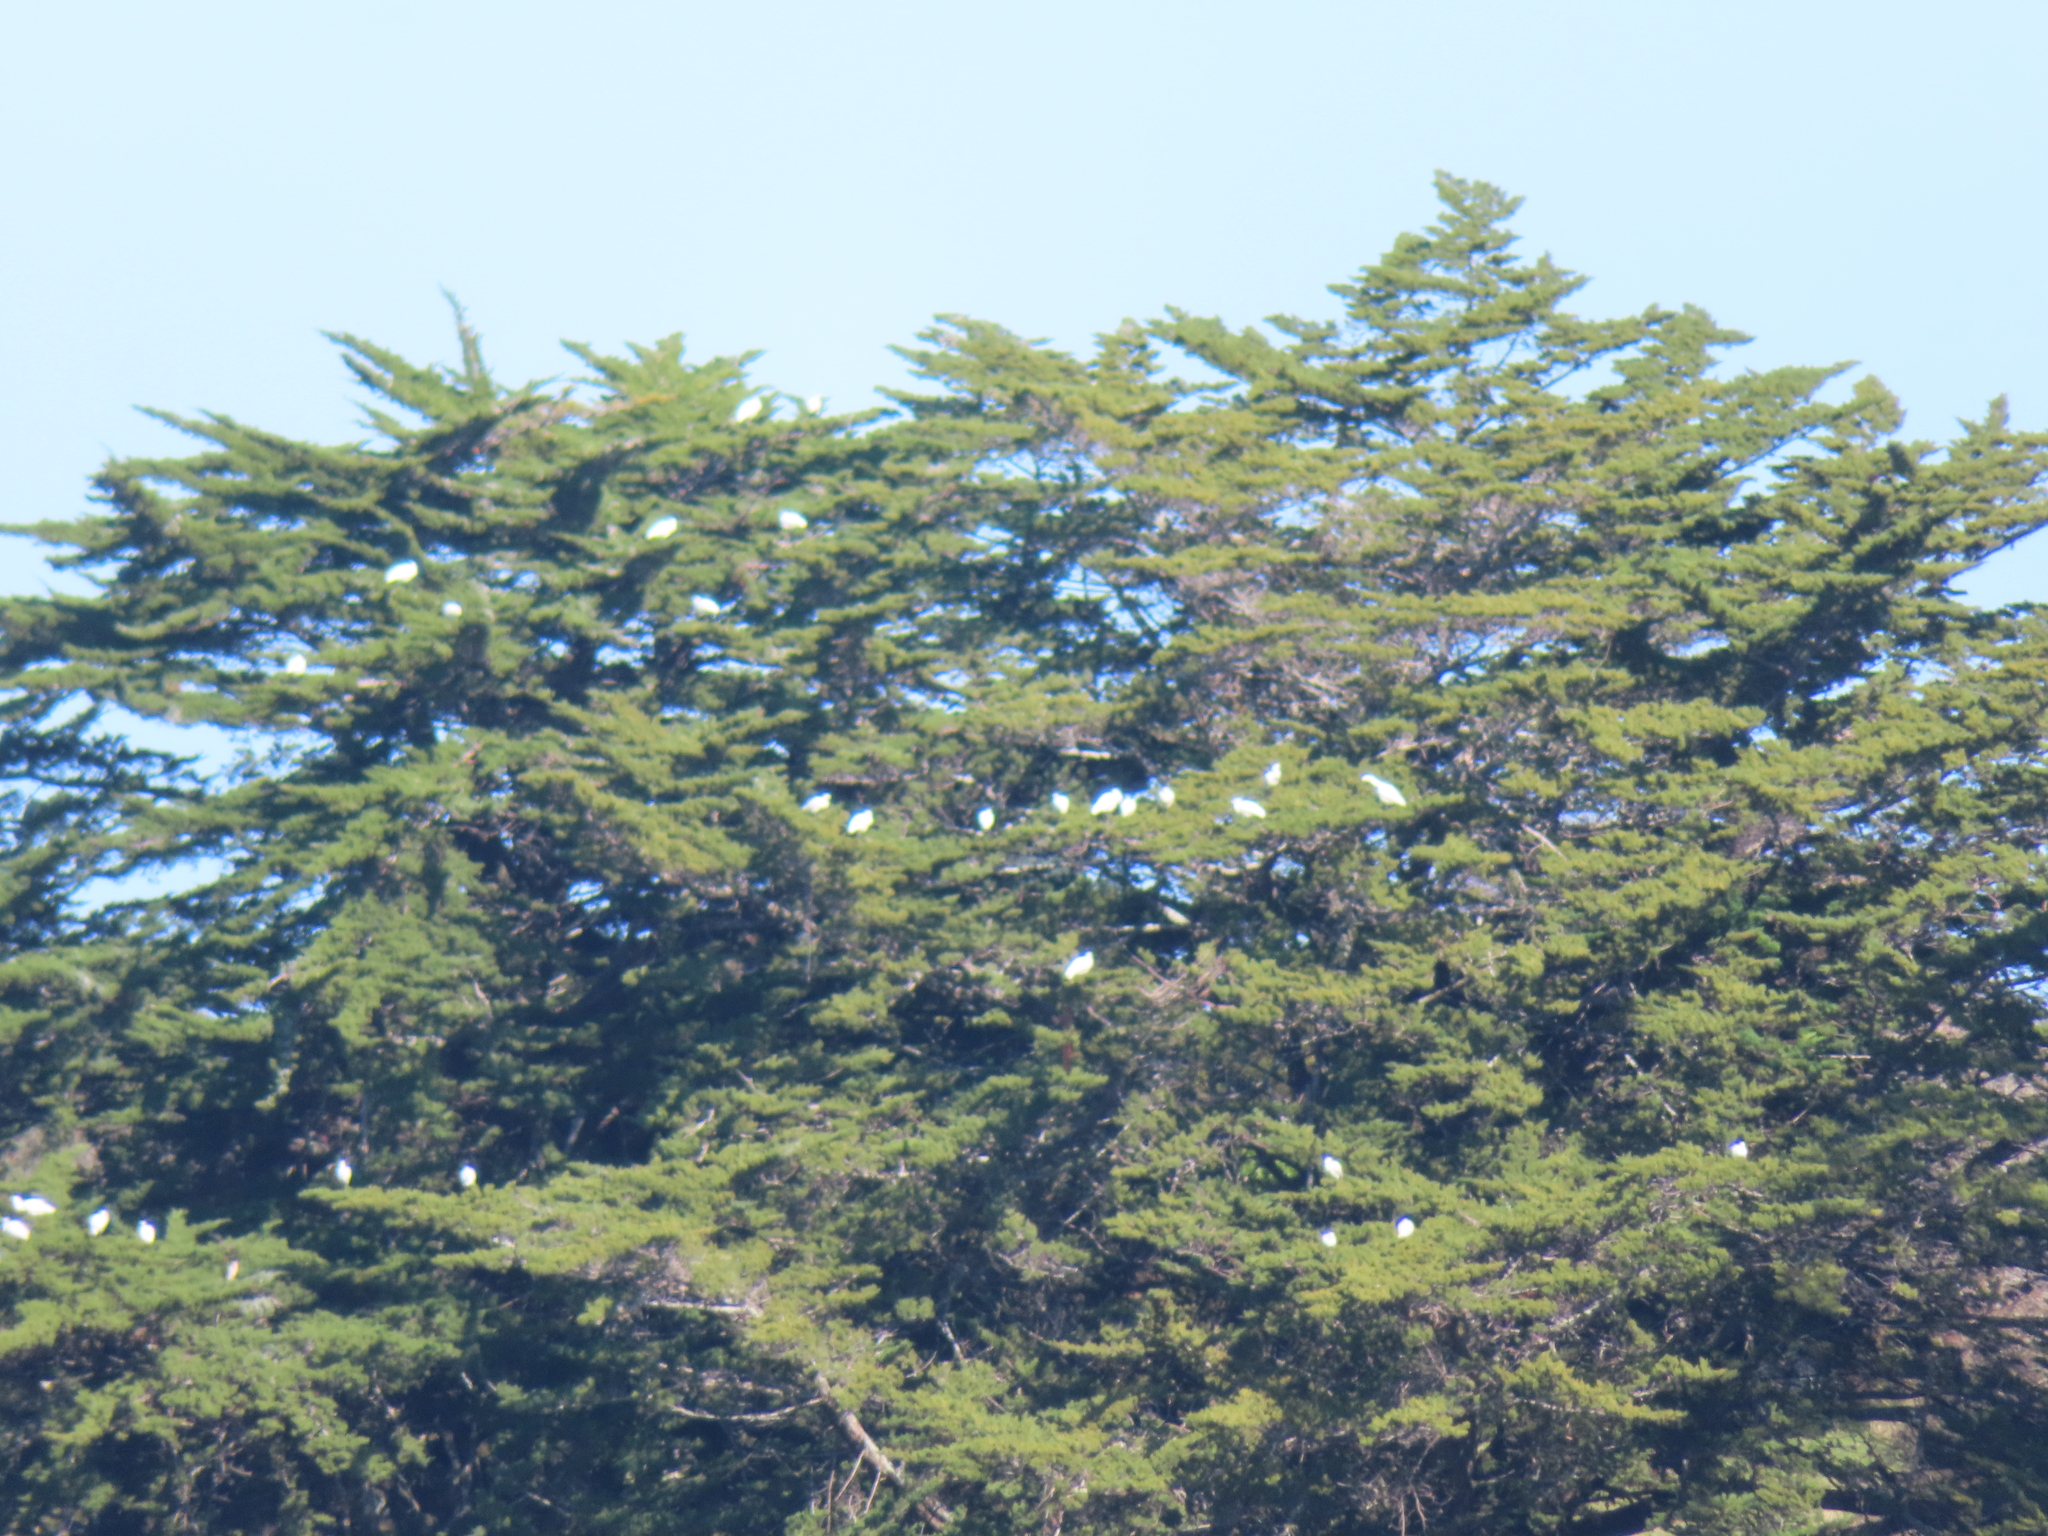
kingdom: Animalia
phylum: Chordata
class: Aves
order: Pelecaniformes
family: Threskiornithidae
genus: Platalea
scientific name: Platalea regia
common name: Royal spoonbill
